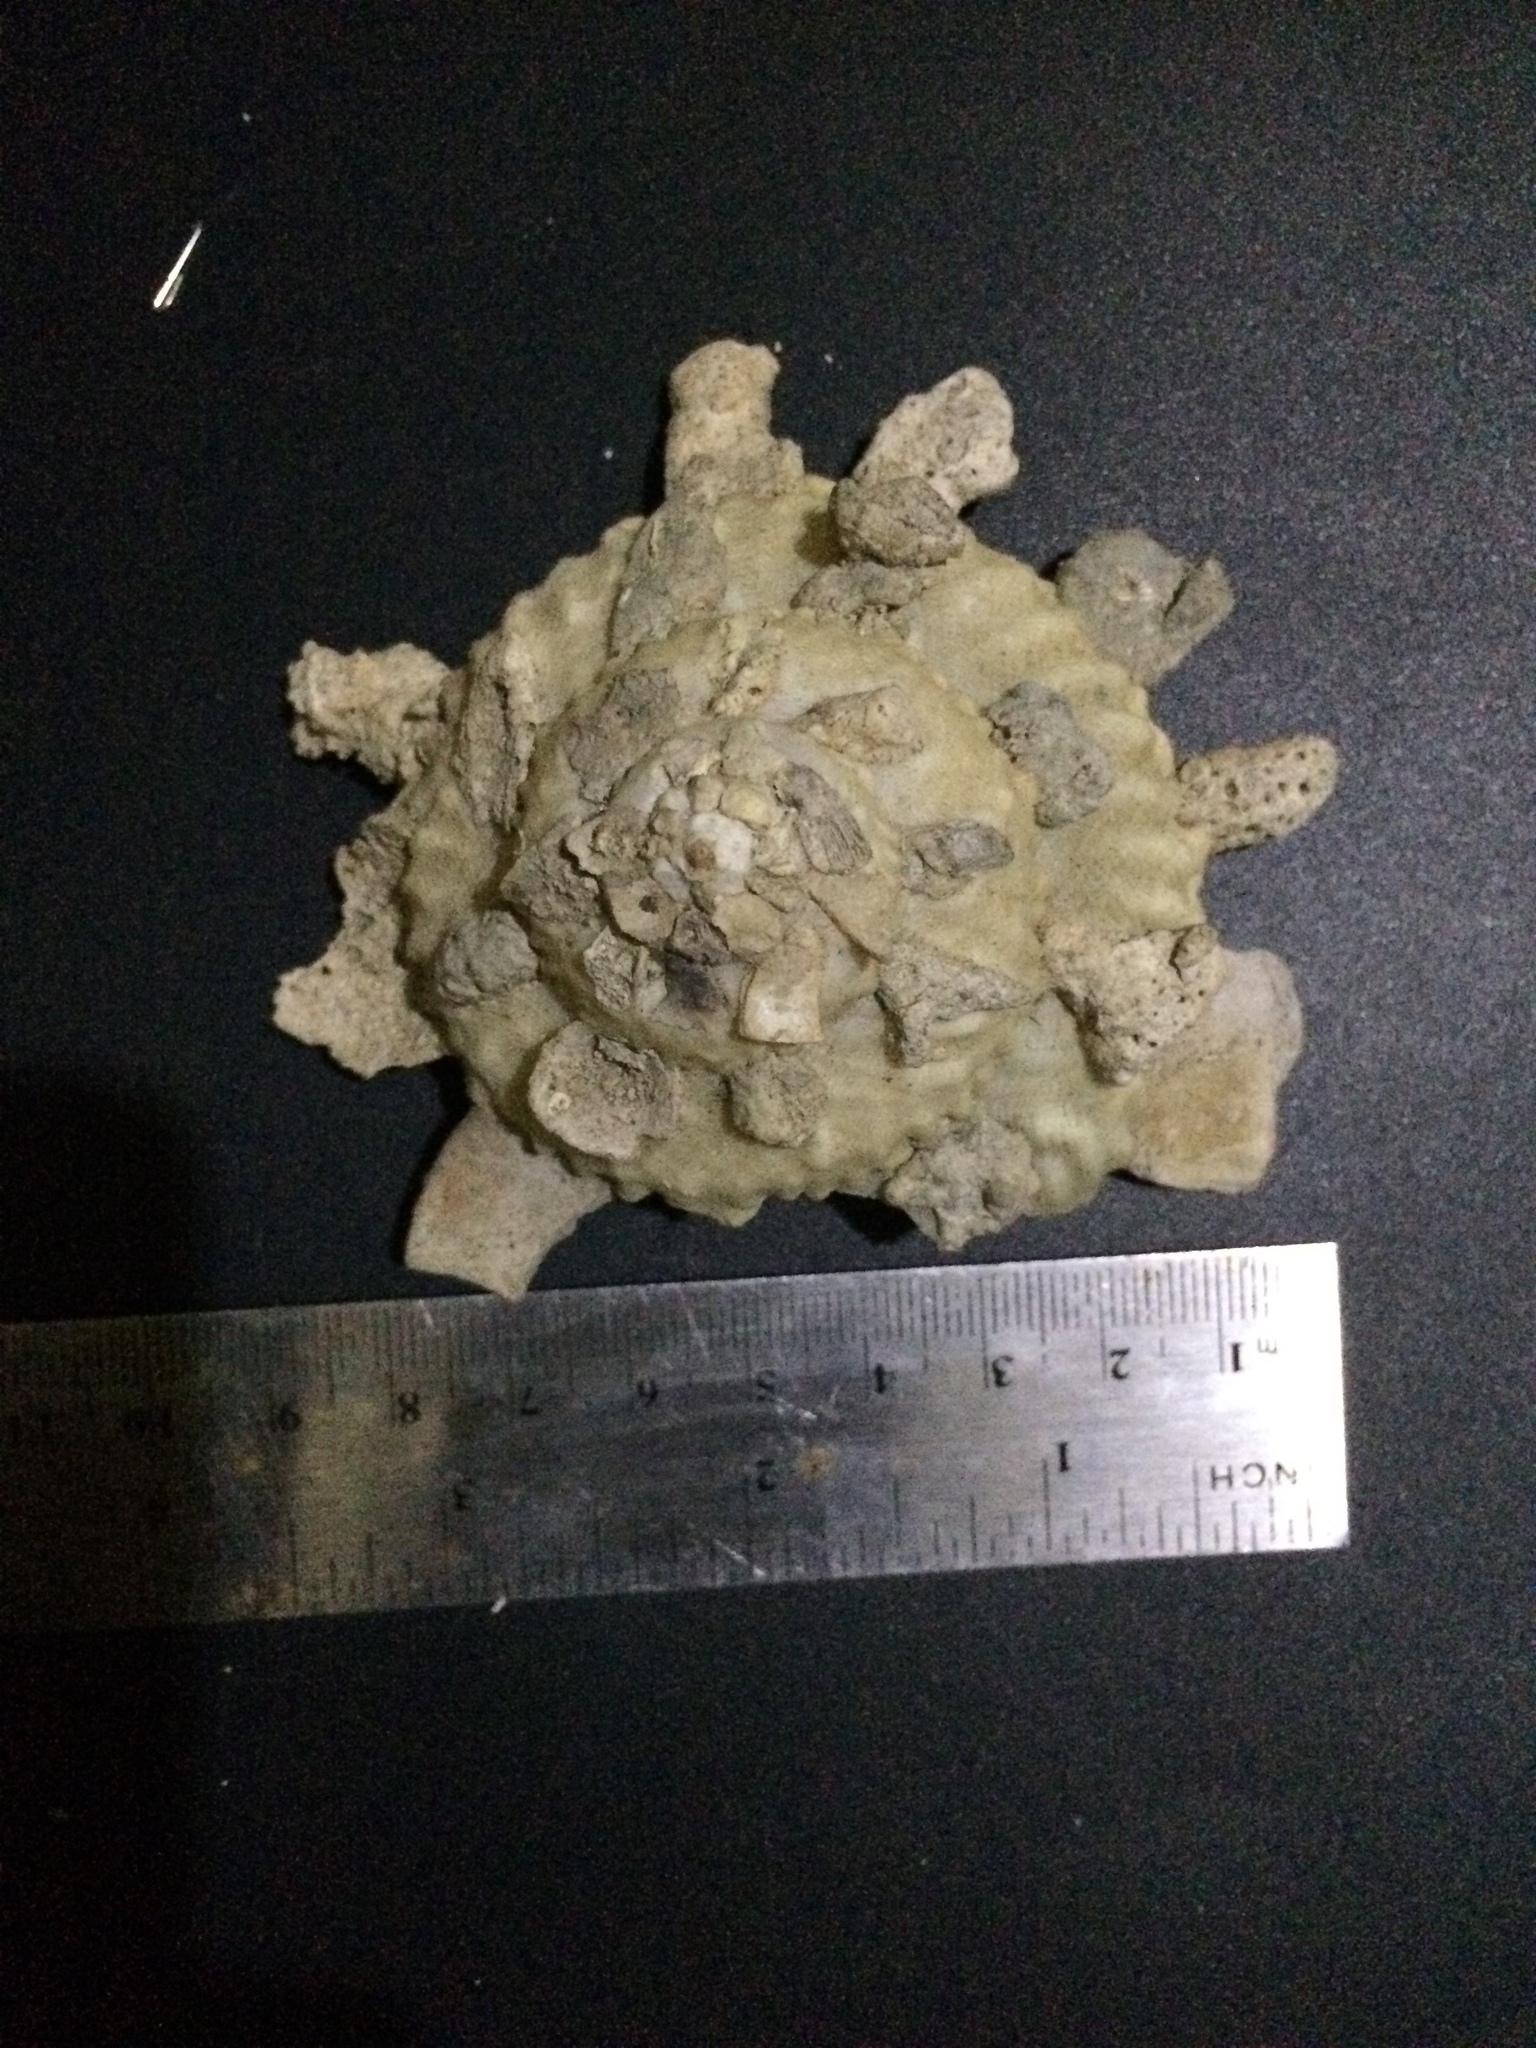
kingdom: Animalia
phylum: Mollusca
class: Gastropoda
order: Littorinimorpha
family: Xenophoridae
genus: Xenophora
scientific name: Xenophora regularis
